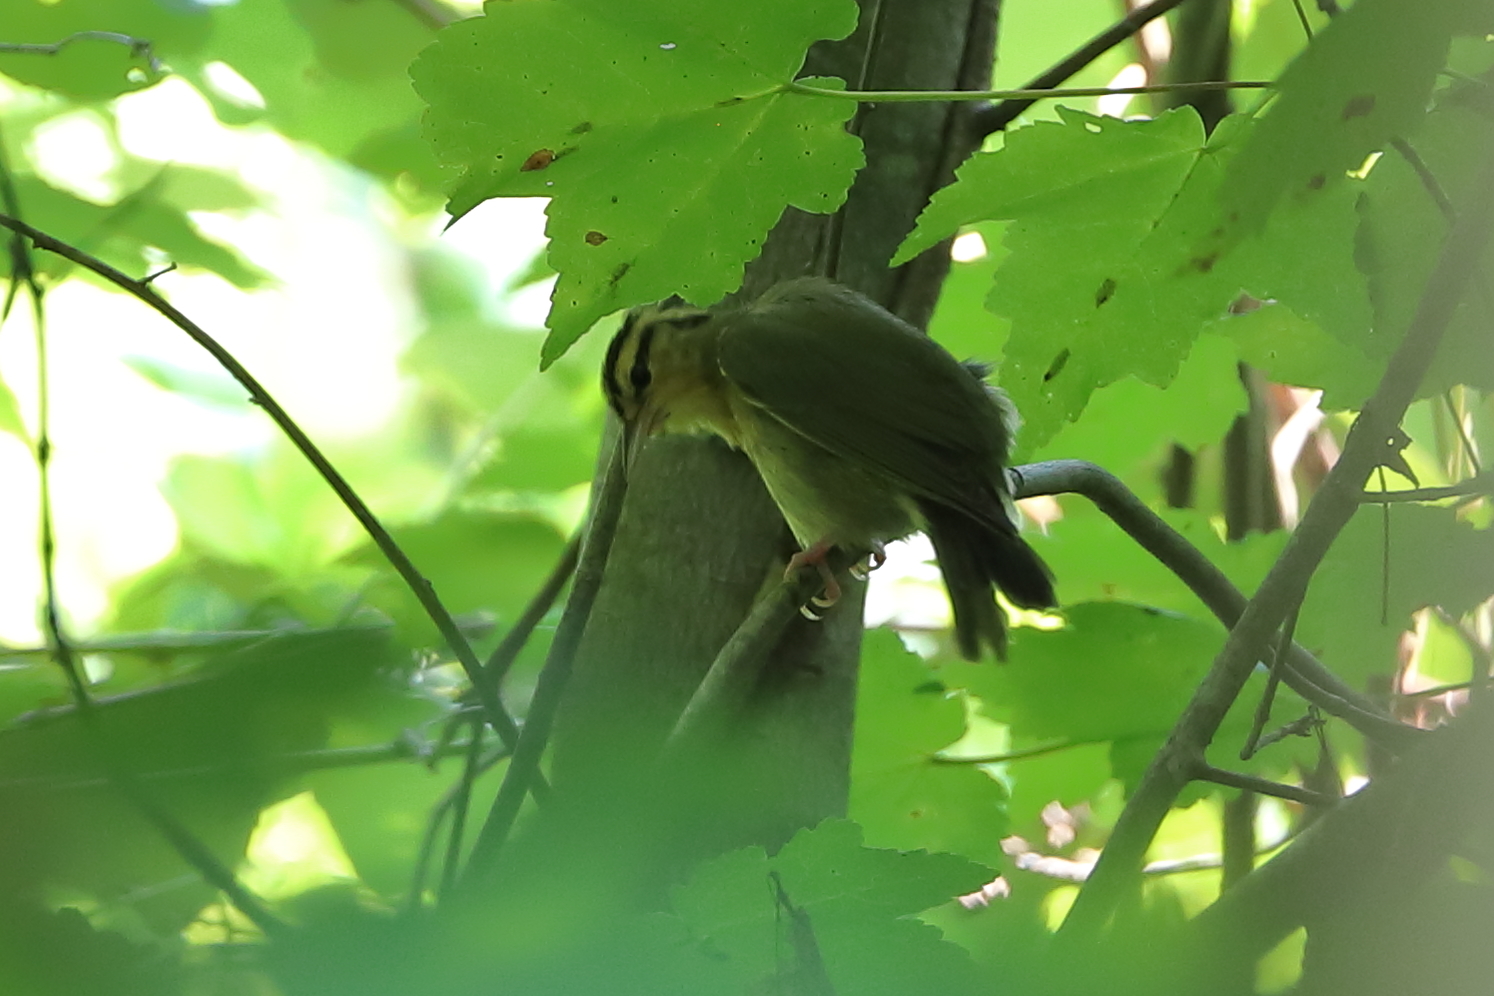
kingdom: Animalia
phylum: Chordata
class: Aves
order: Passeriformes
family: Parulidae
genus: Helmitheros
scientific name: Helmitheros vermivorum
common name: Worm-eating warbler
